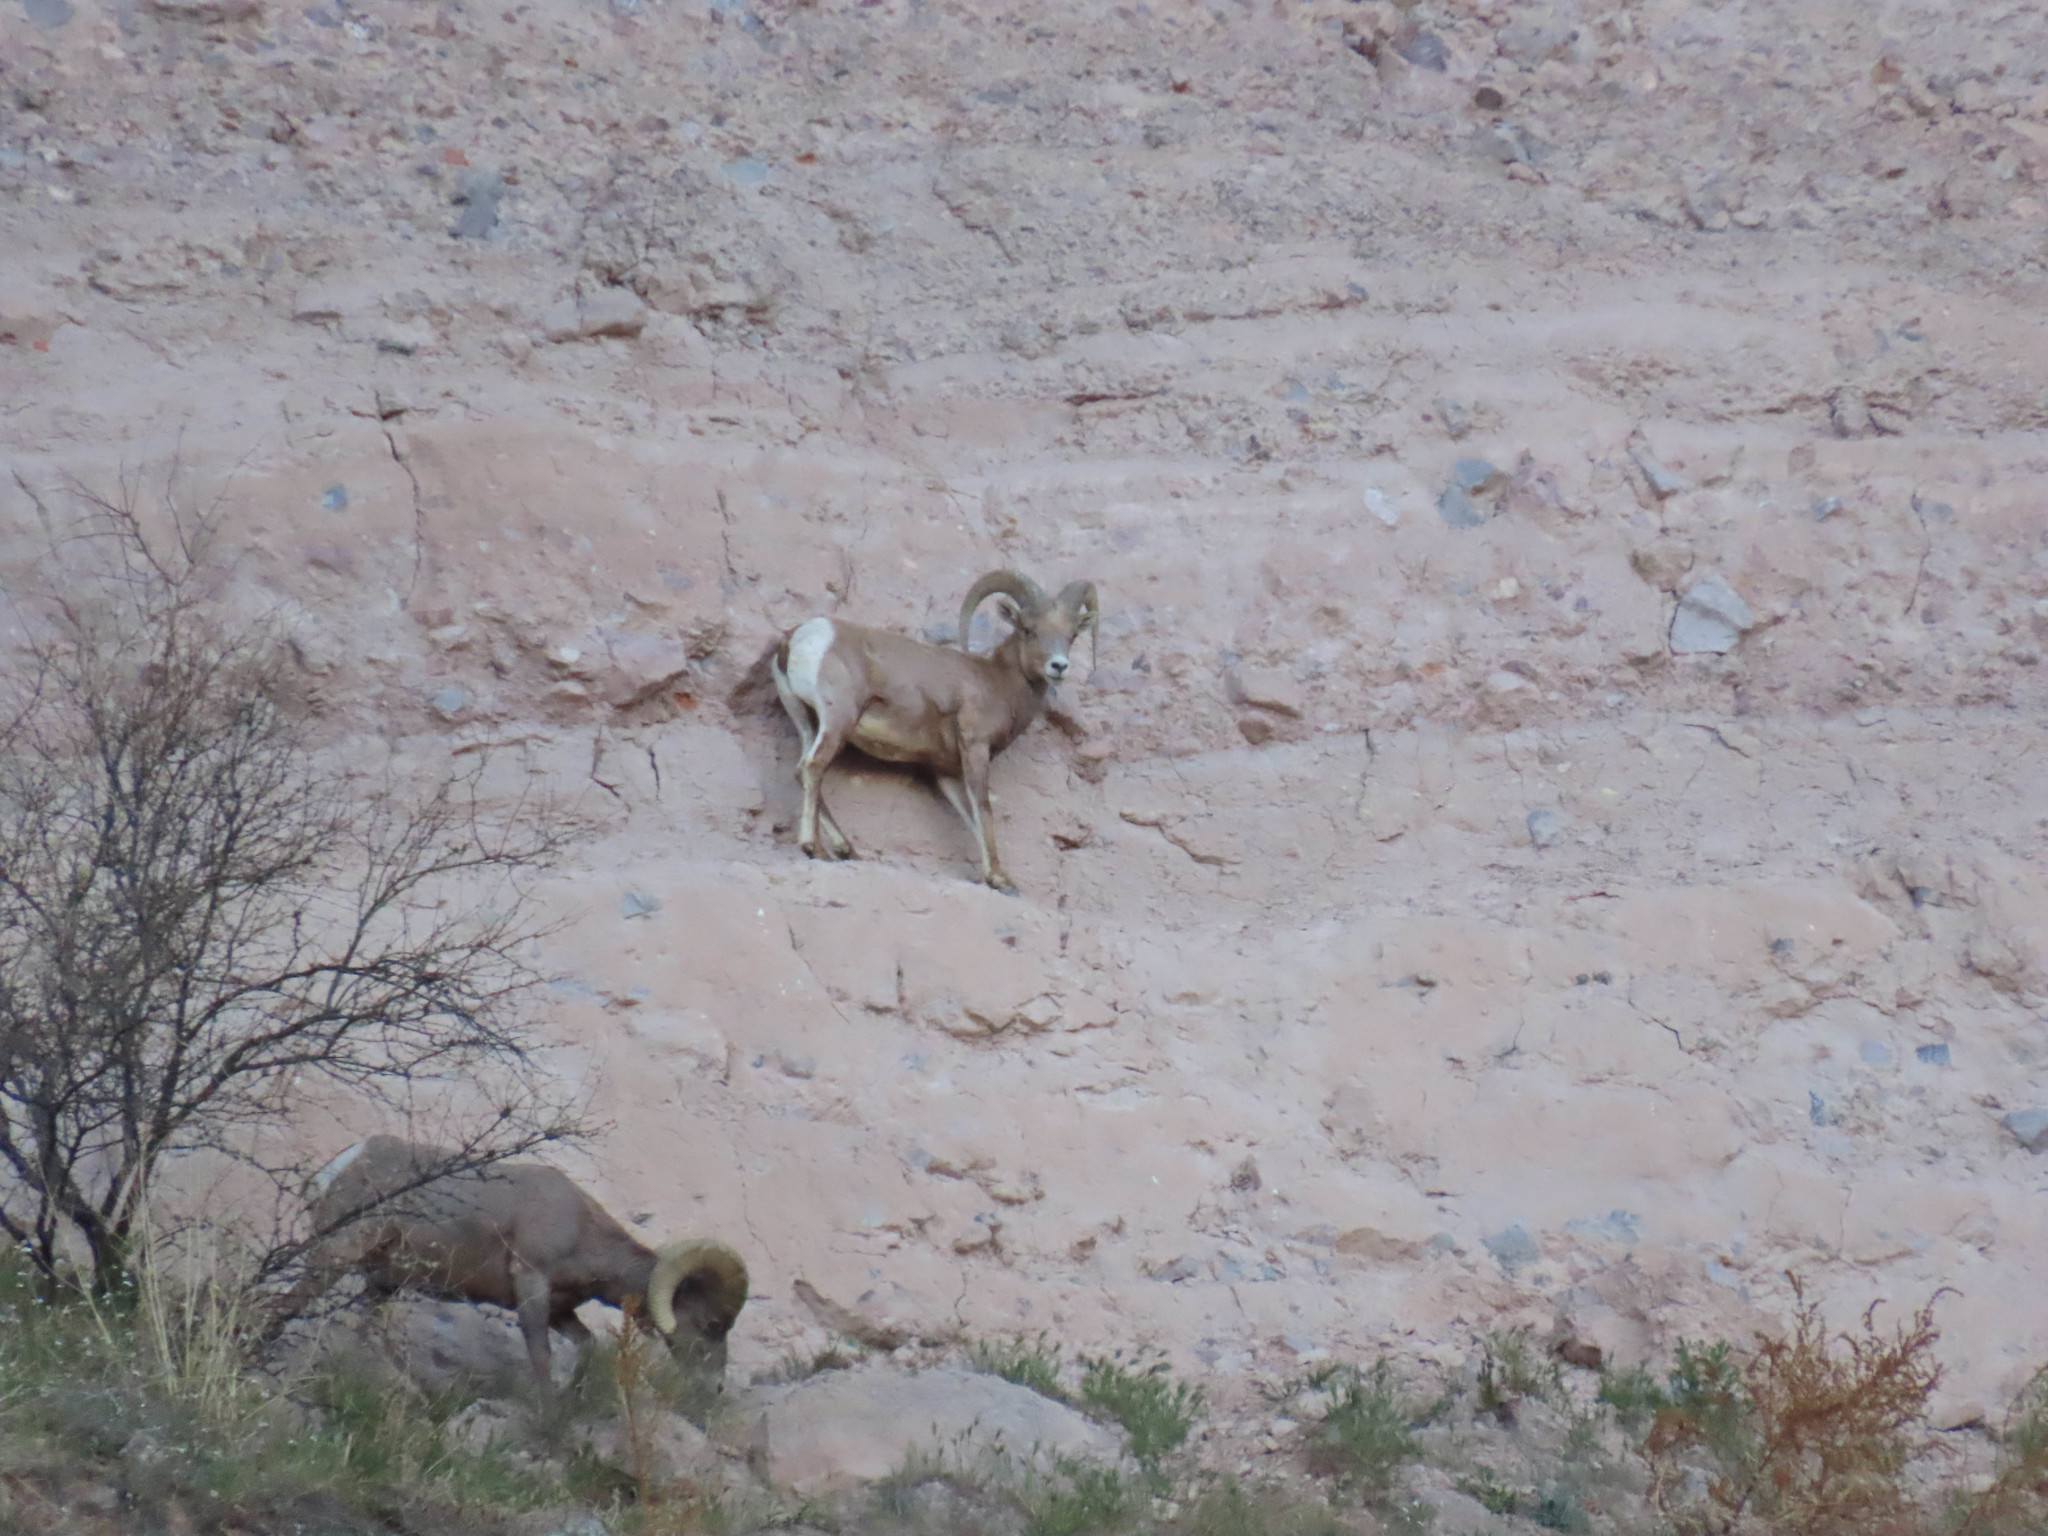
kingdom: Animalia
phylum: Chordata
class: Mammalia
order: Artiodactyla
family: Bovidae
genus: Ovis
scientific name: Ovis canadensis
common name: Bighorn sheep
